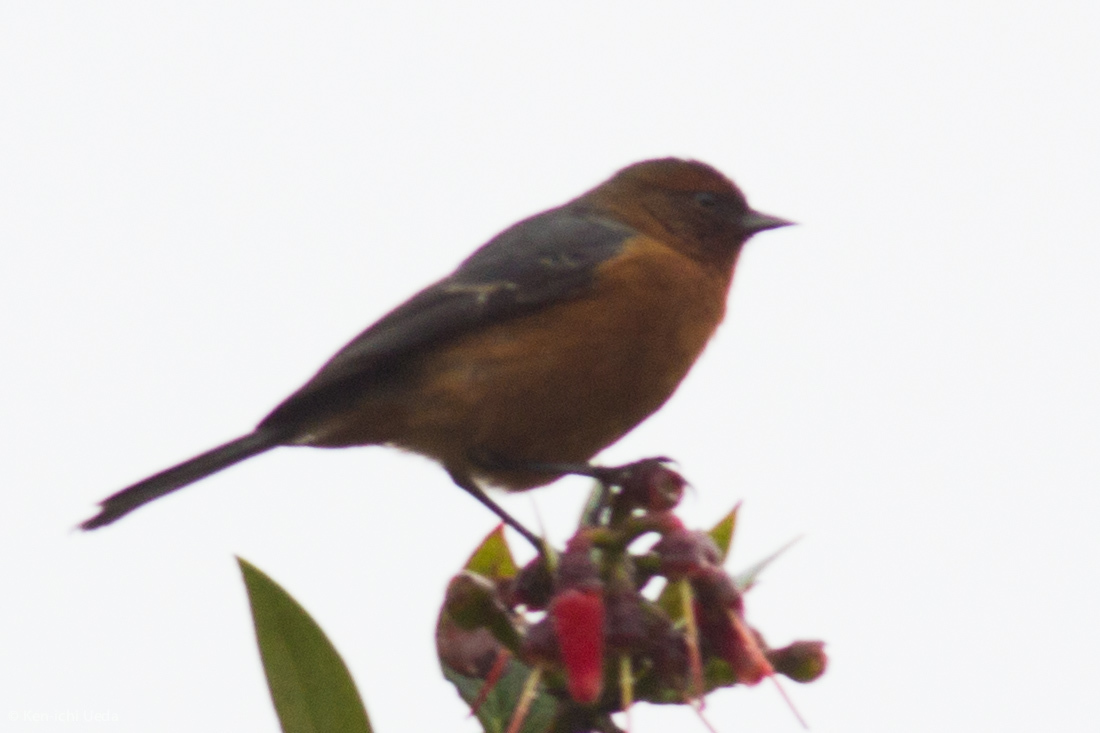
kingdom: Animalia
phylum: Chordata
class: Aves
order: Passeriformes
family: Thraupidae
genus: Conirostrum
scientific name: Conirostrum rufum
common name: Rufous-browed conebill
